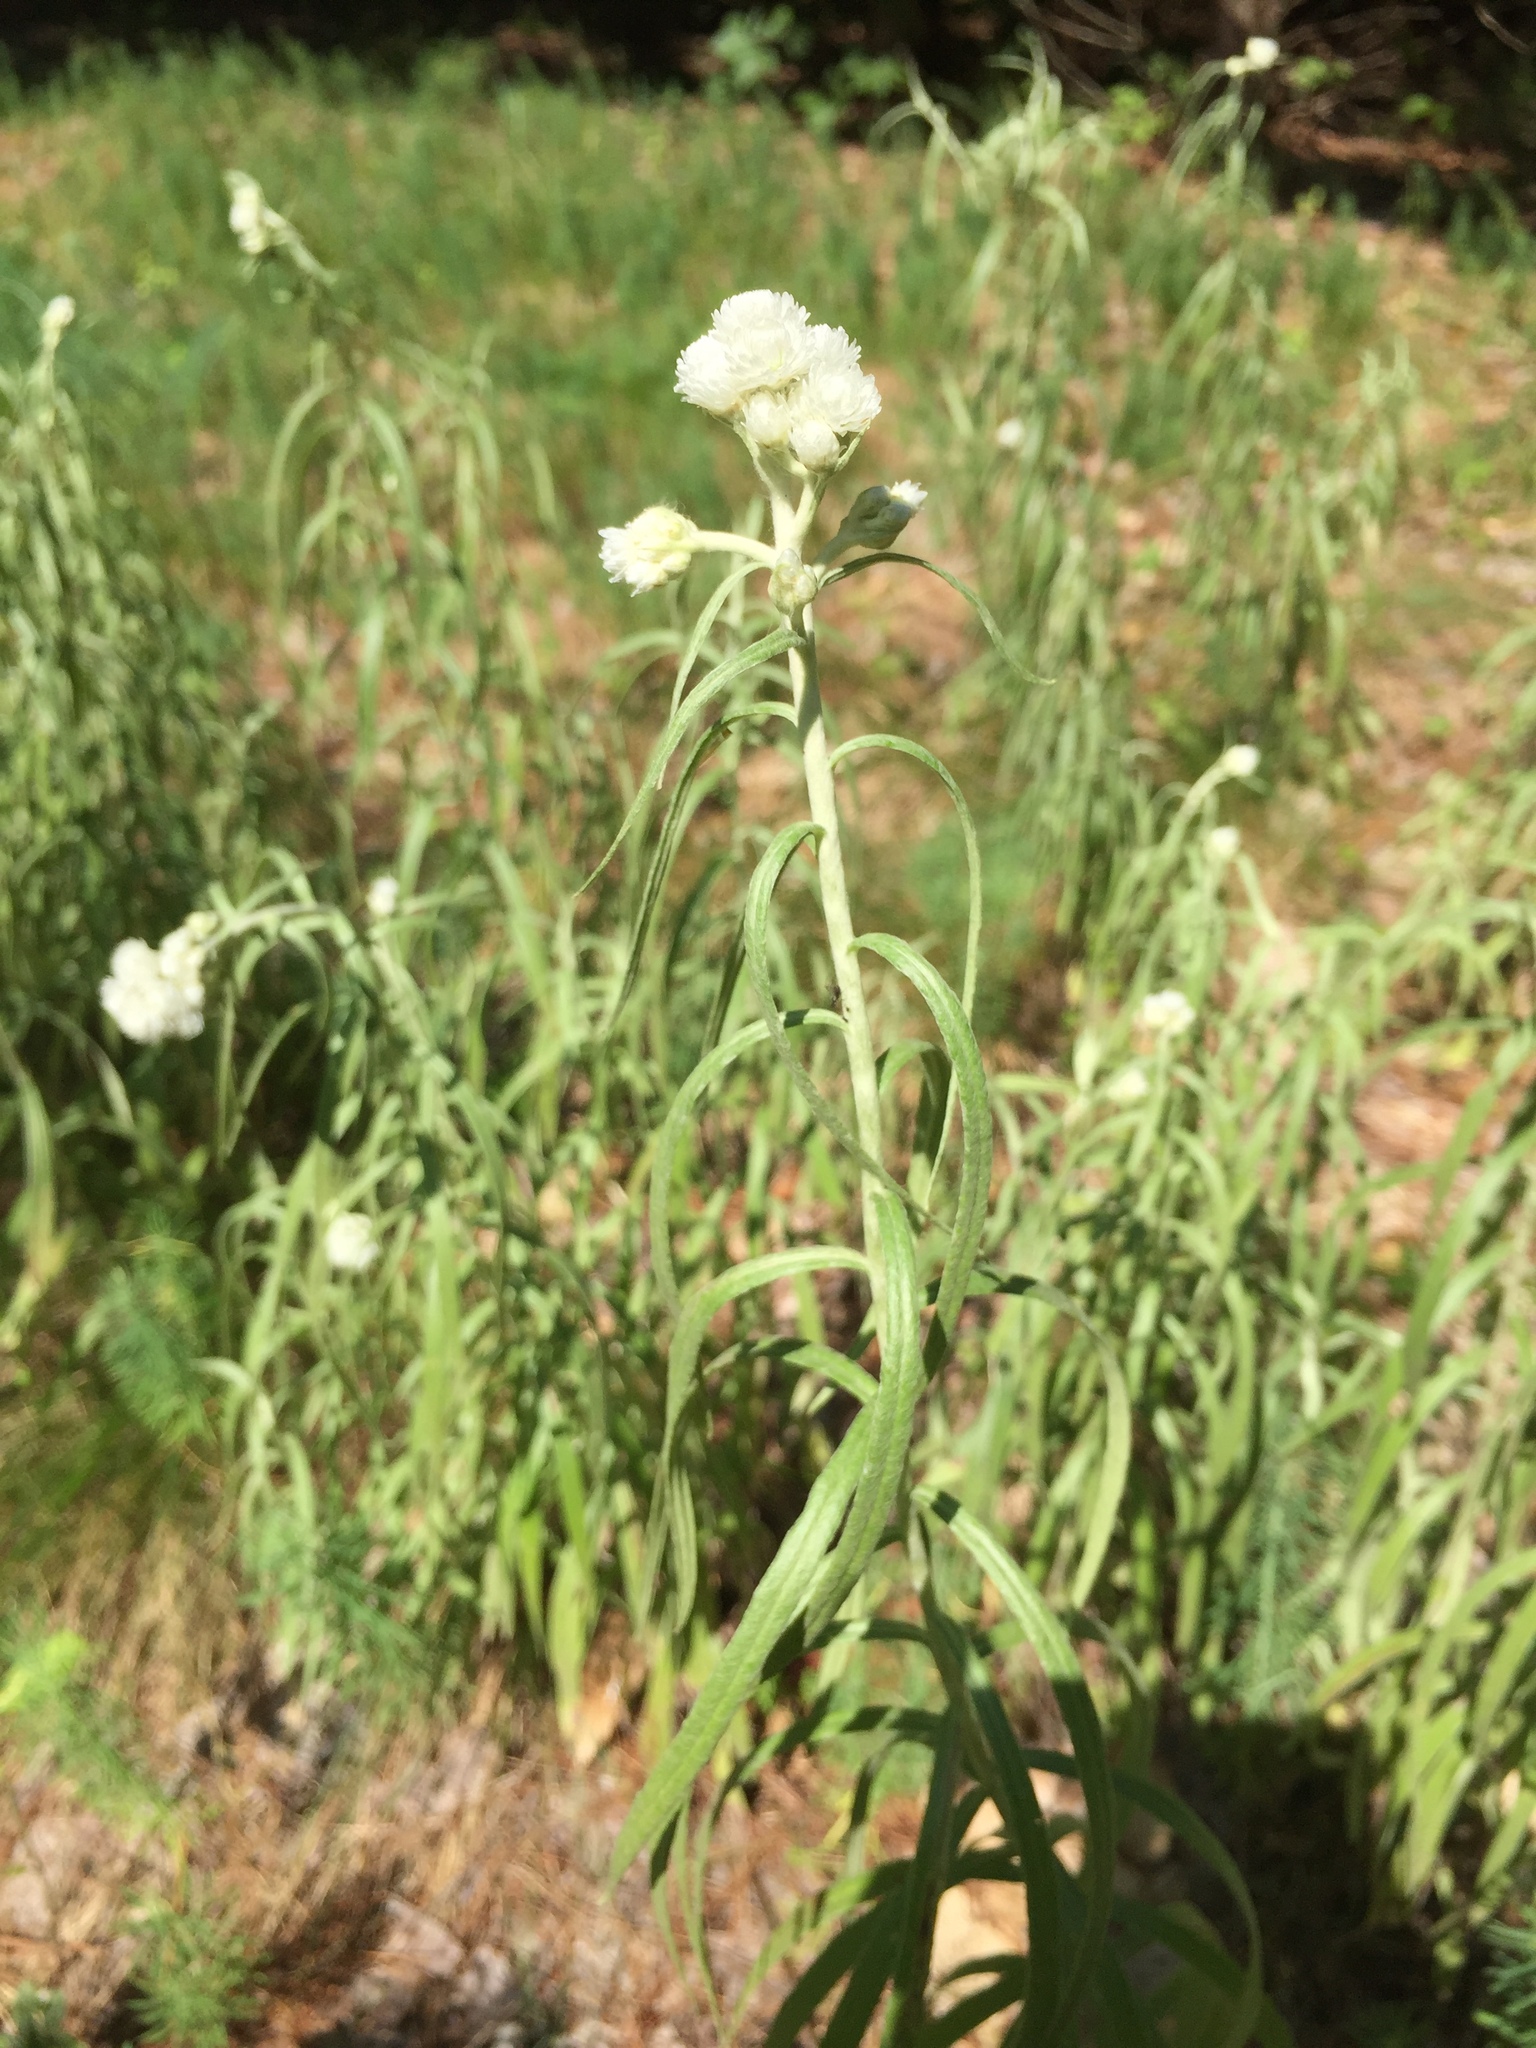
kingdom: Plantae
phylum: Tracheophyta
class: Magnoliopsida
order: Asterales
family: Asteraceae
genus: Anaphalis
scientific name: Anaphalis margaritacea
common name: Pearly everlasting
